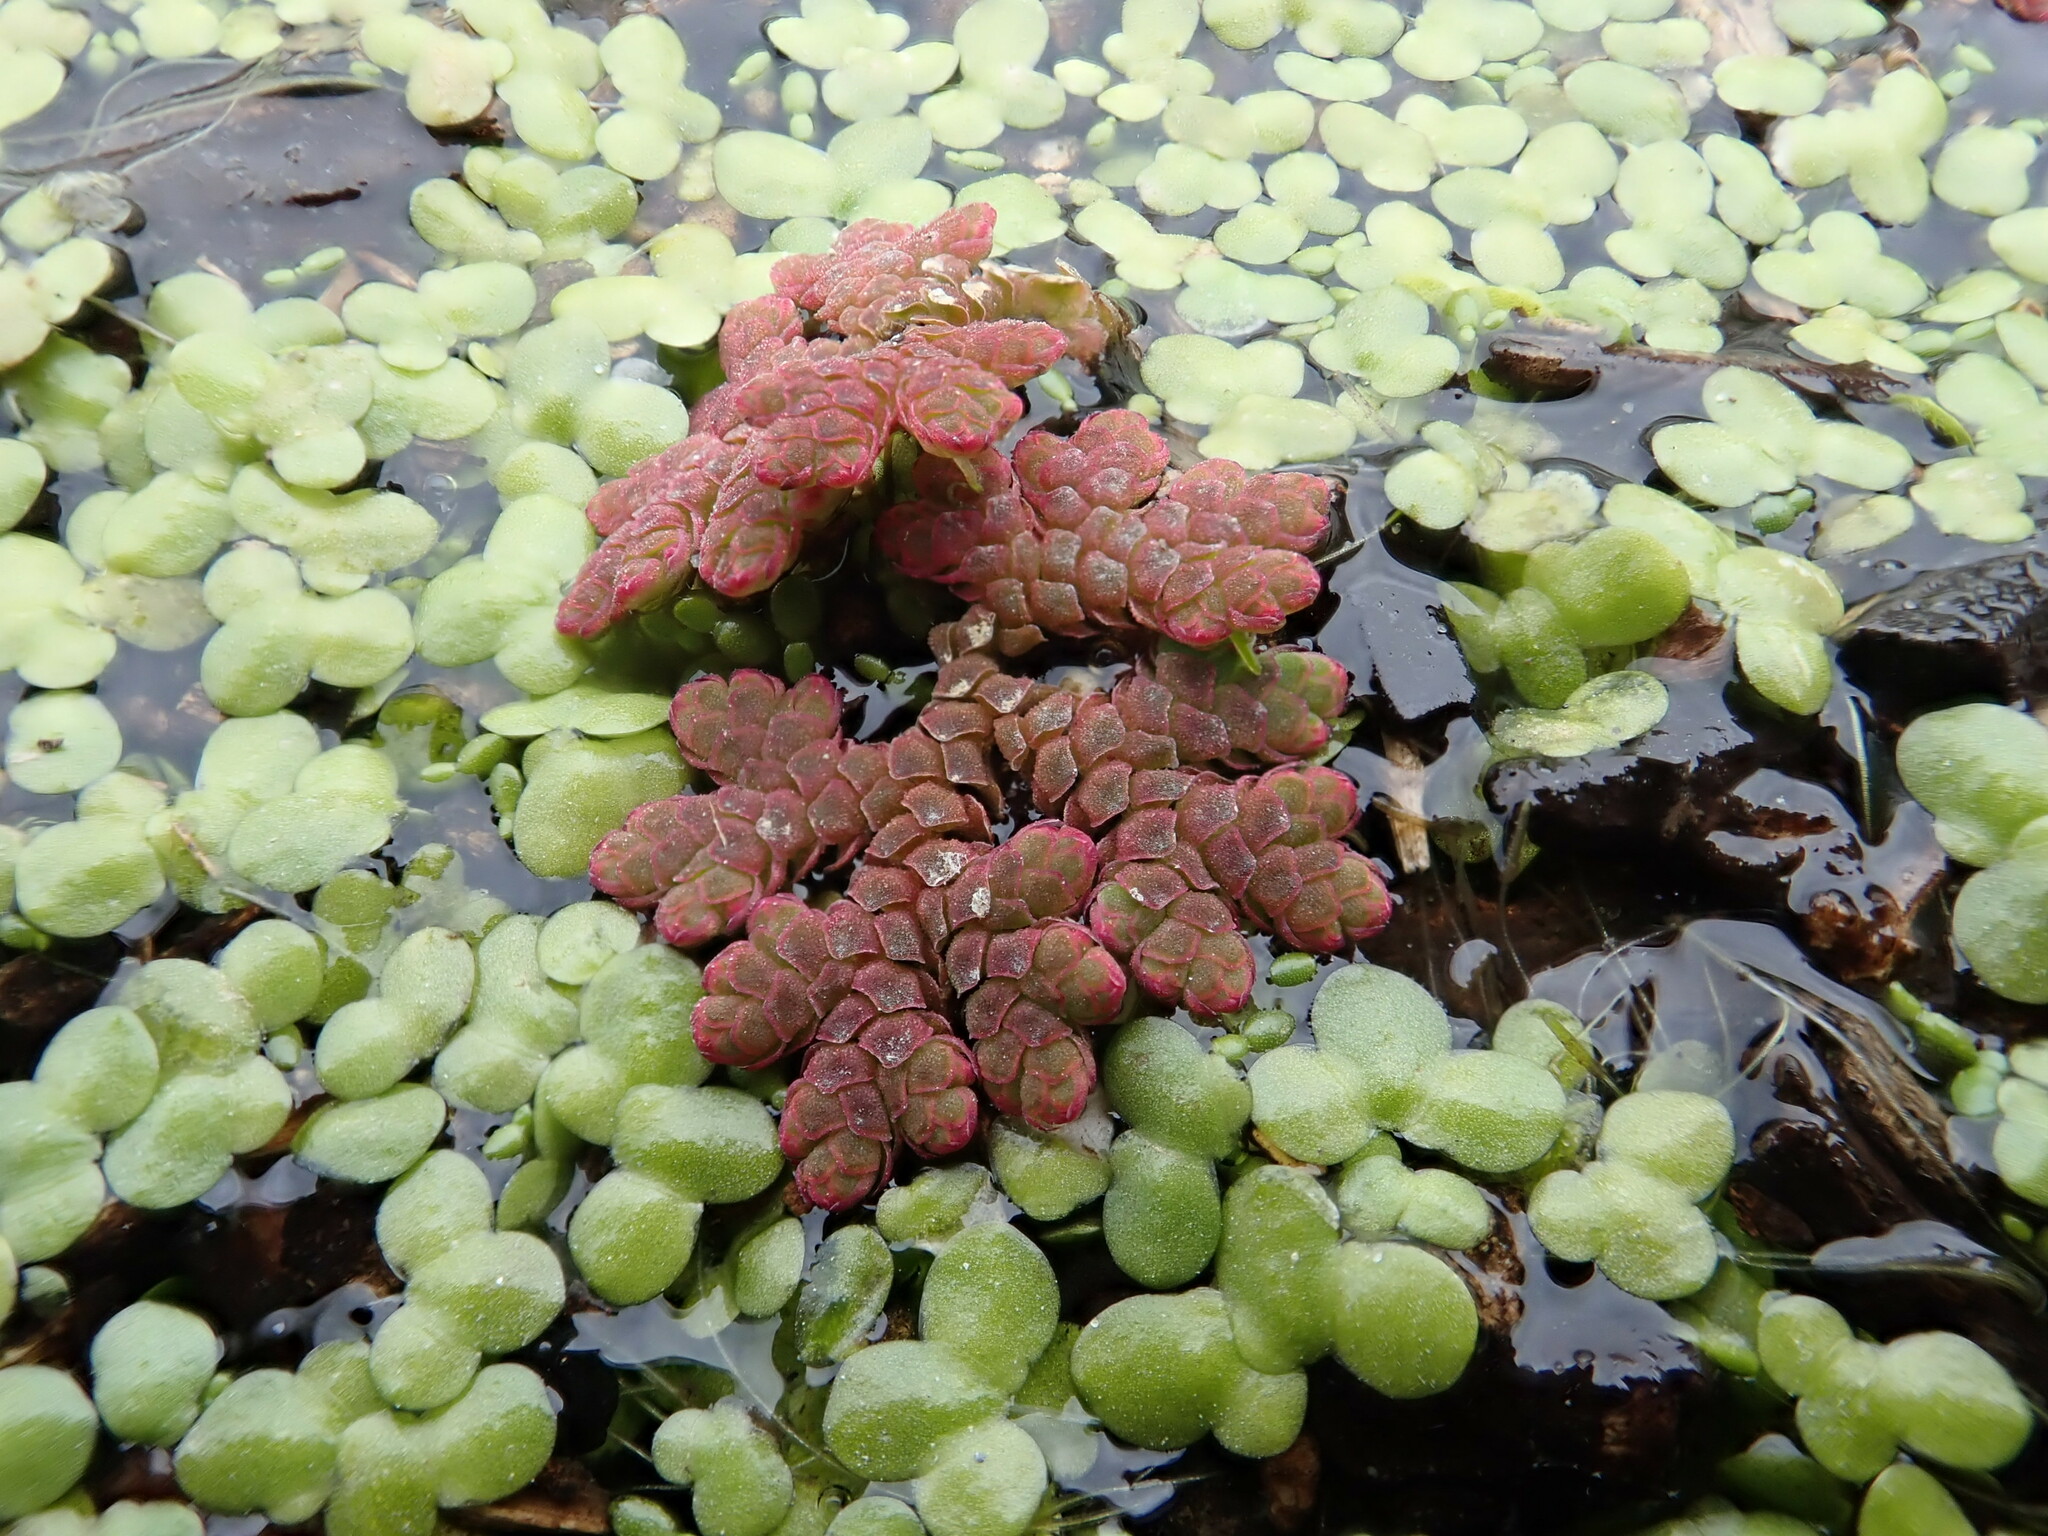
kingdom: Plantae
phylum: Tracheophyta
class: Polypodiopsida
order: Salviniales
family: Salviniaceae
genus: Azolla
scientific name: Azolla rubra
